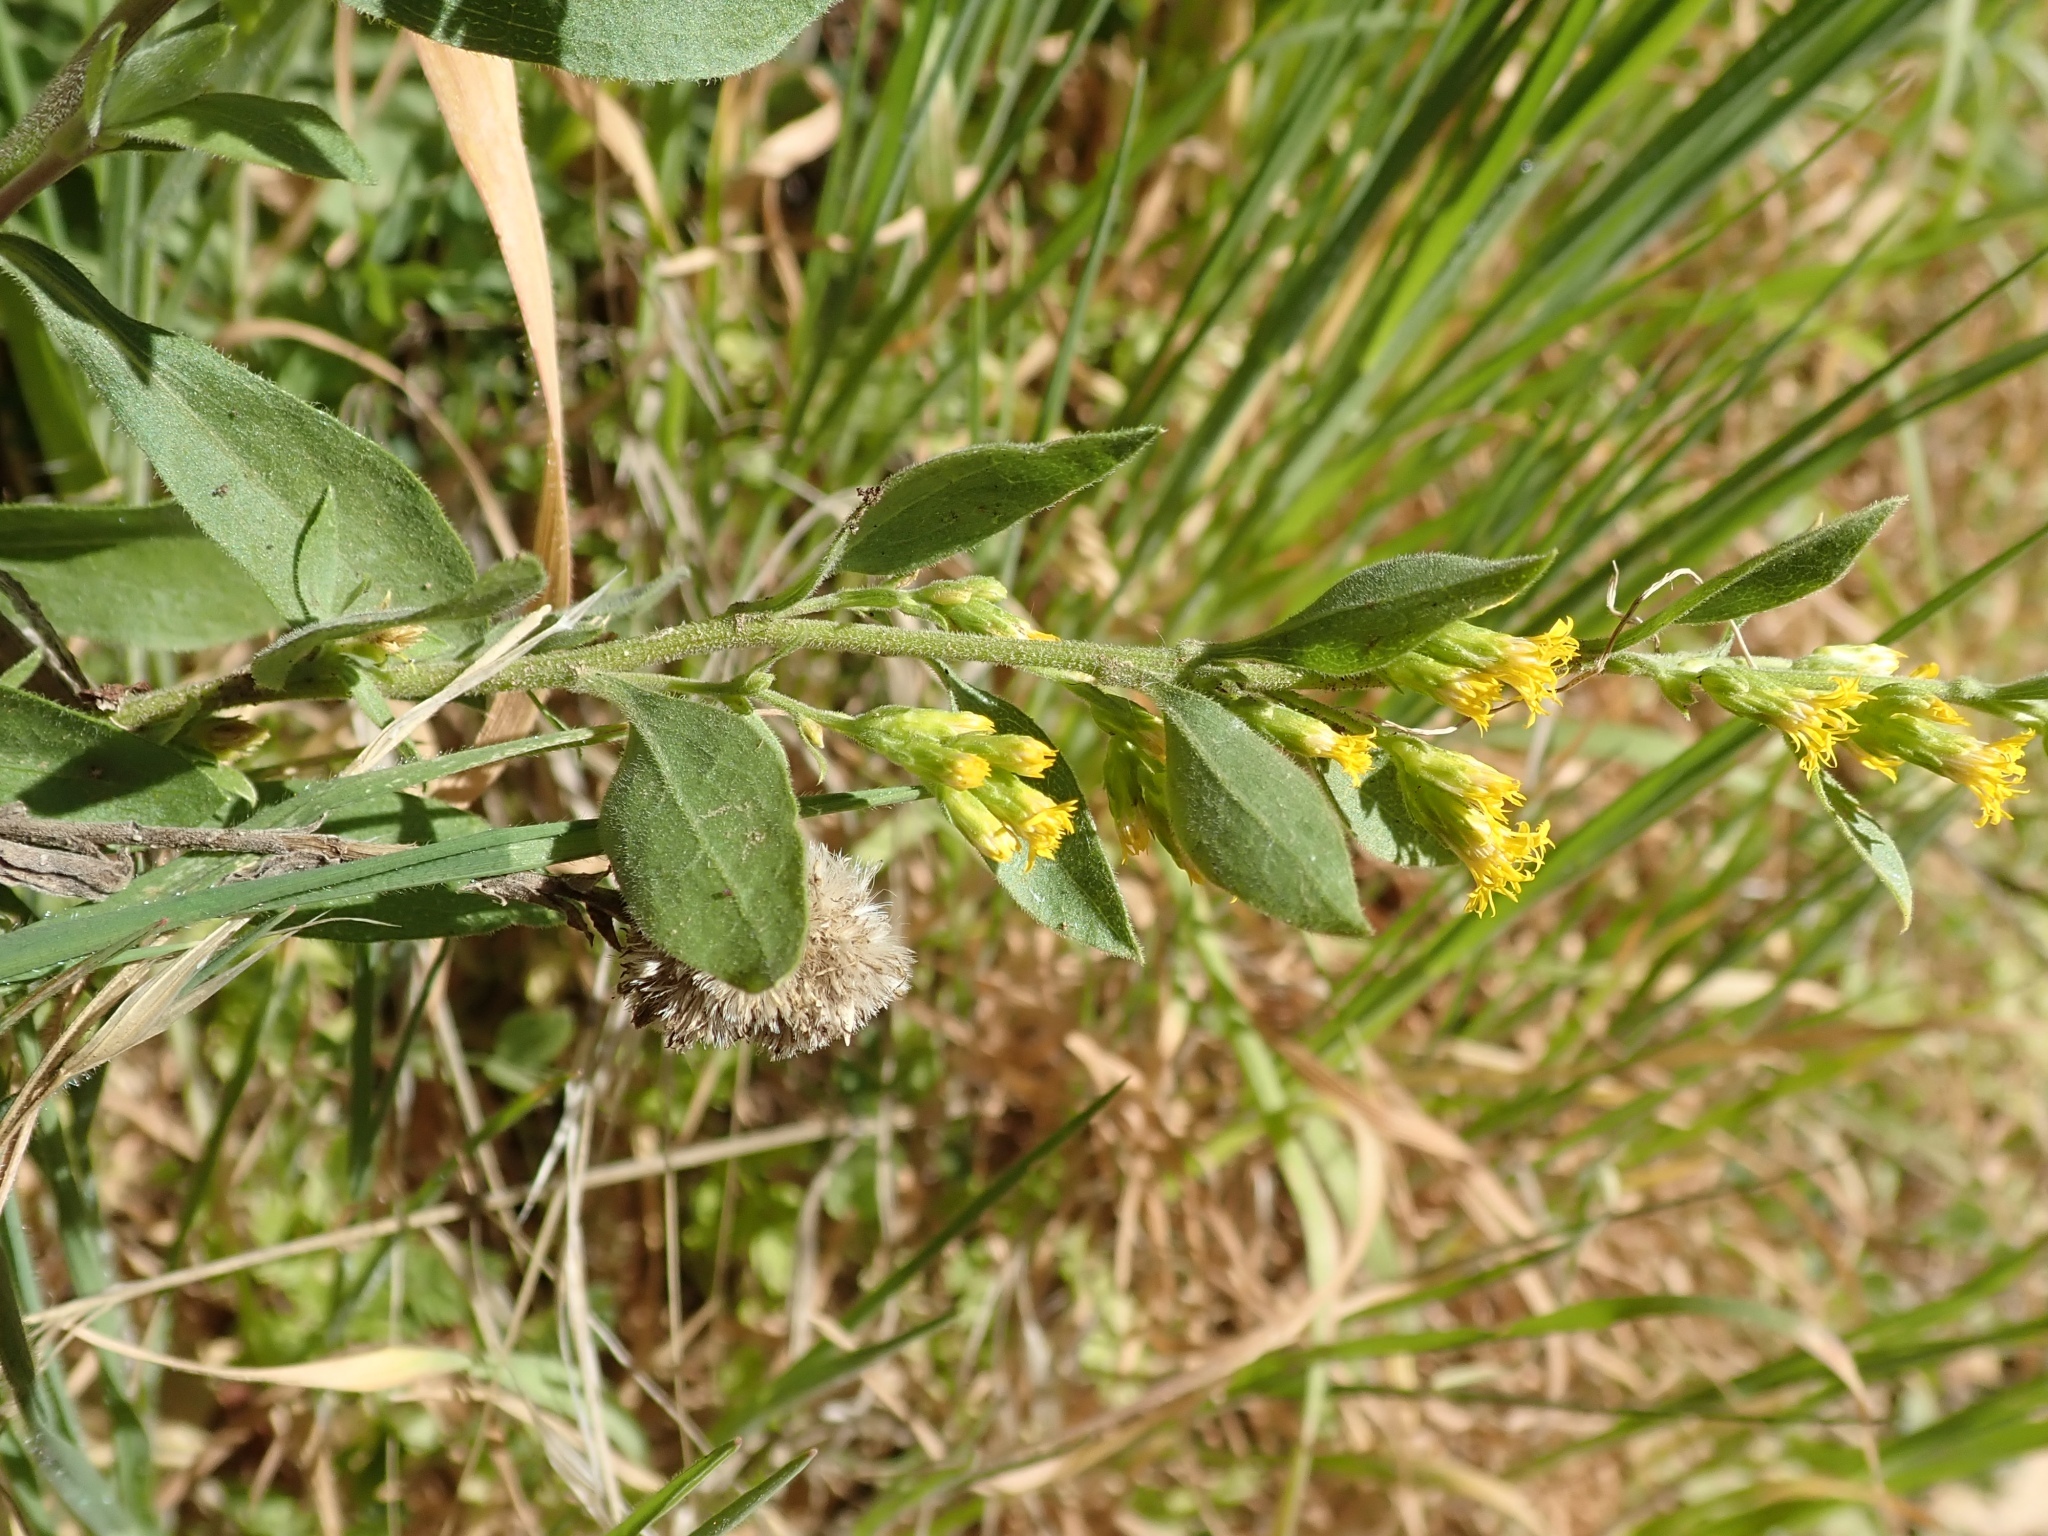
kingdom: Plantae
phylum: Tracheophyta
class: Magnoliopsida
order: Asterales
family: Asteraceae
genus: Solidago
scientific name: Solidago californica
